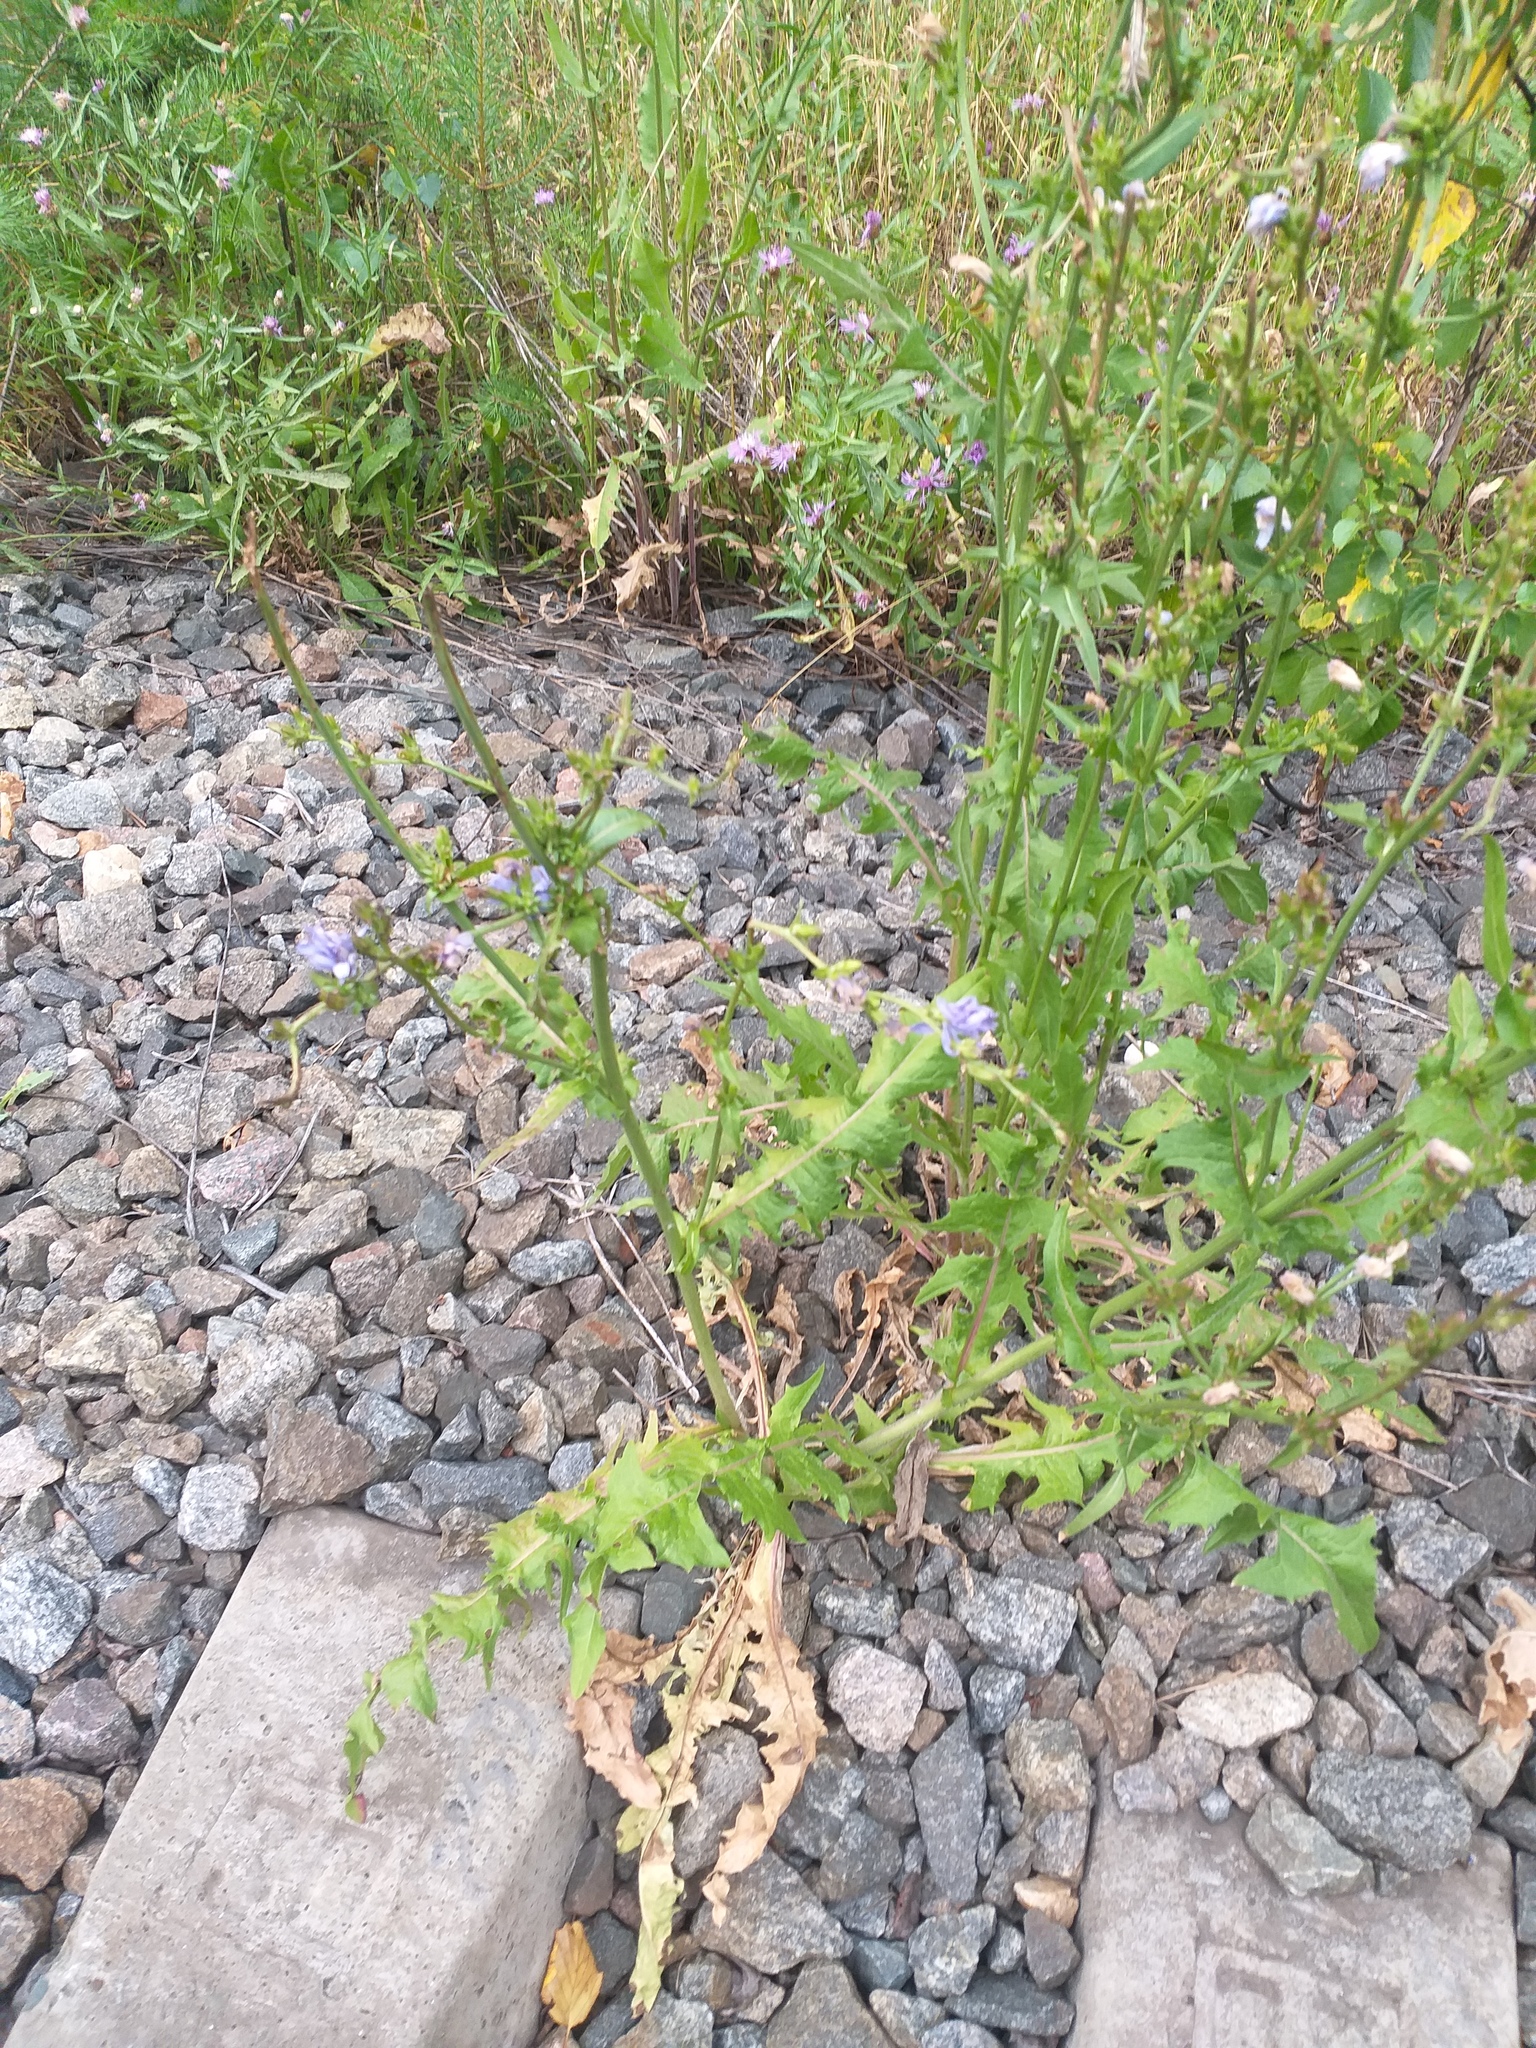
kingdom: Plantae
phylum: Tracheophyta
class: Magnoliopsida
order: Asterales
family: Asteraceae
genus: Cichorium
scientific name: Cichorium intybus
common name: Chicory
